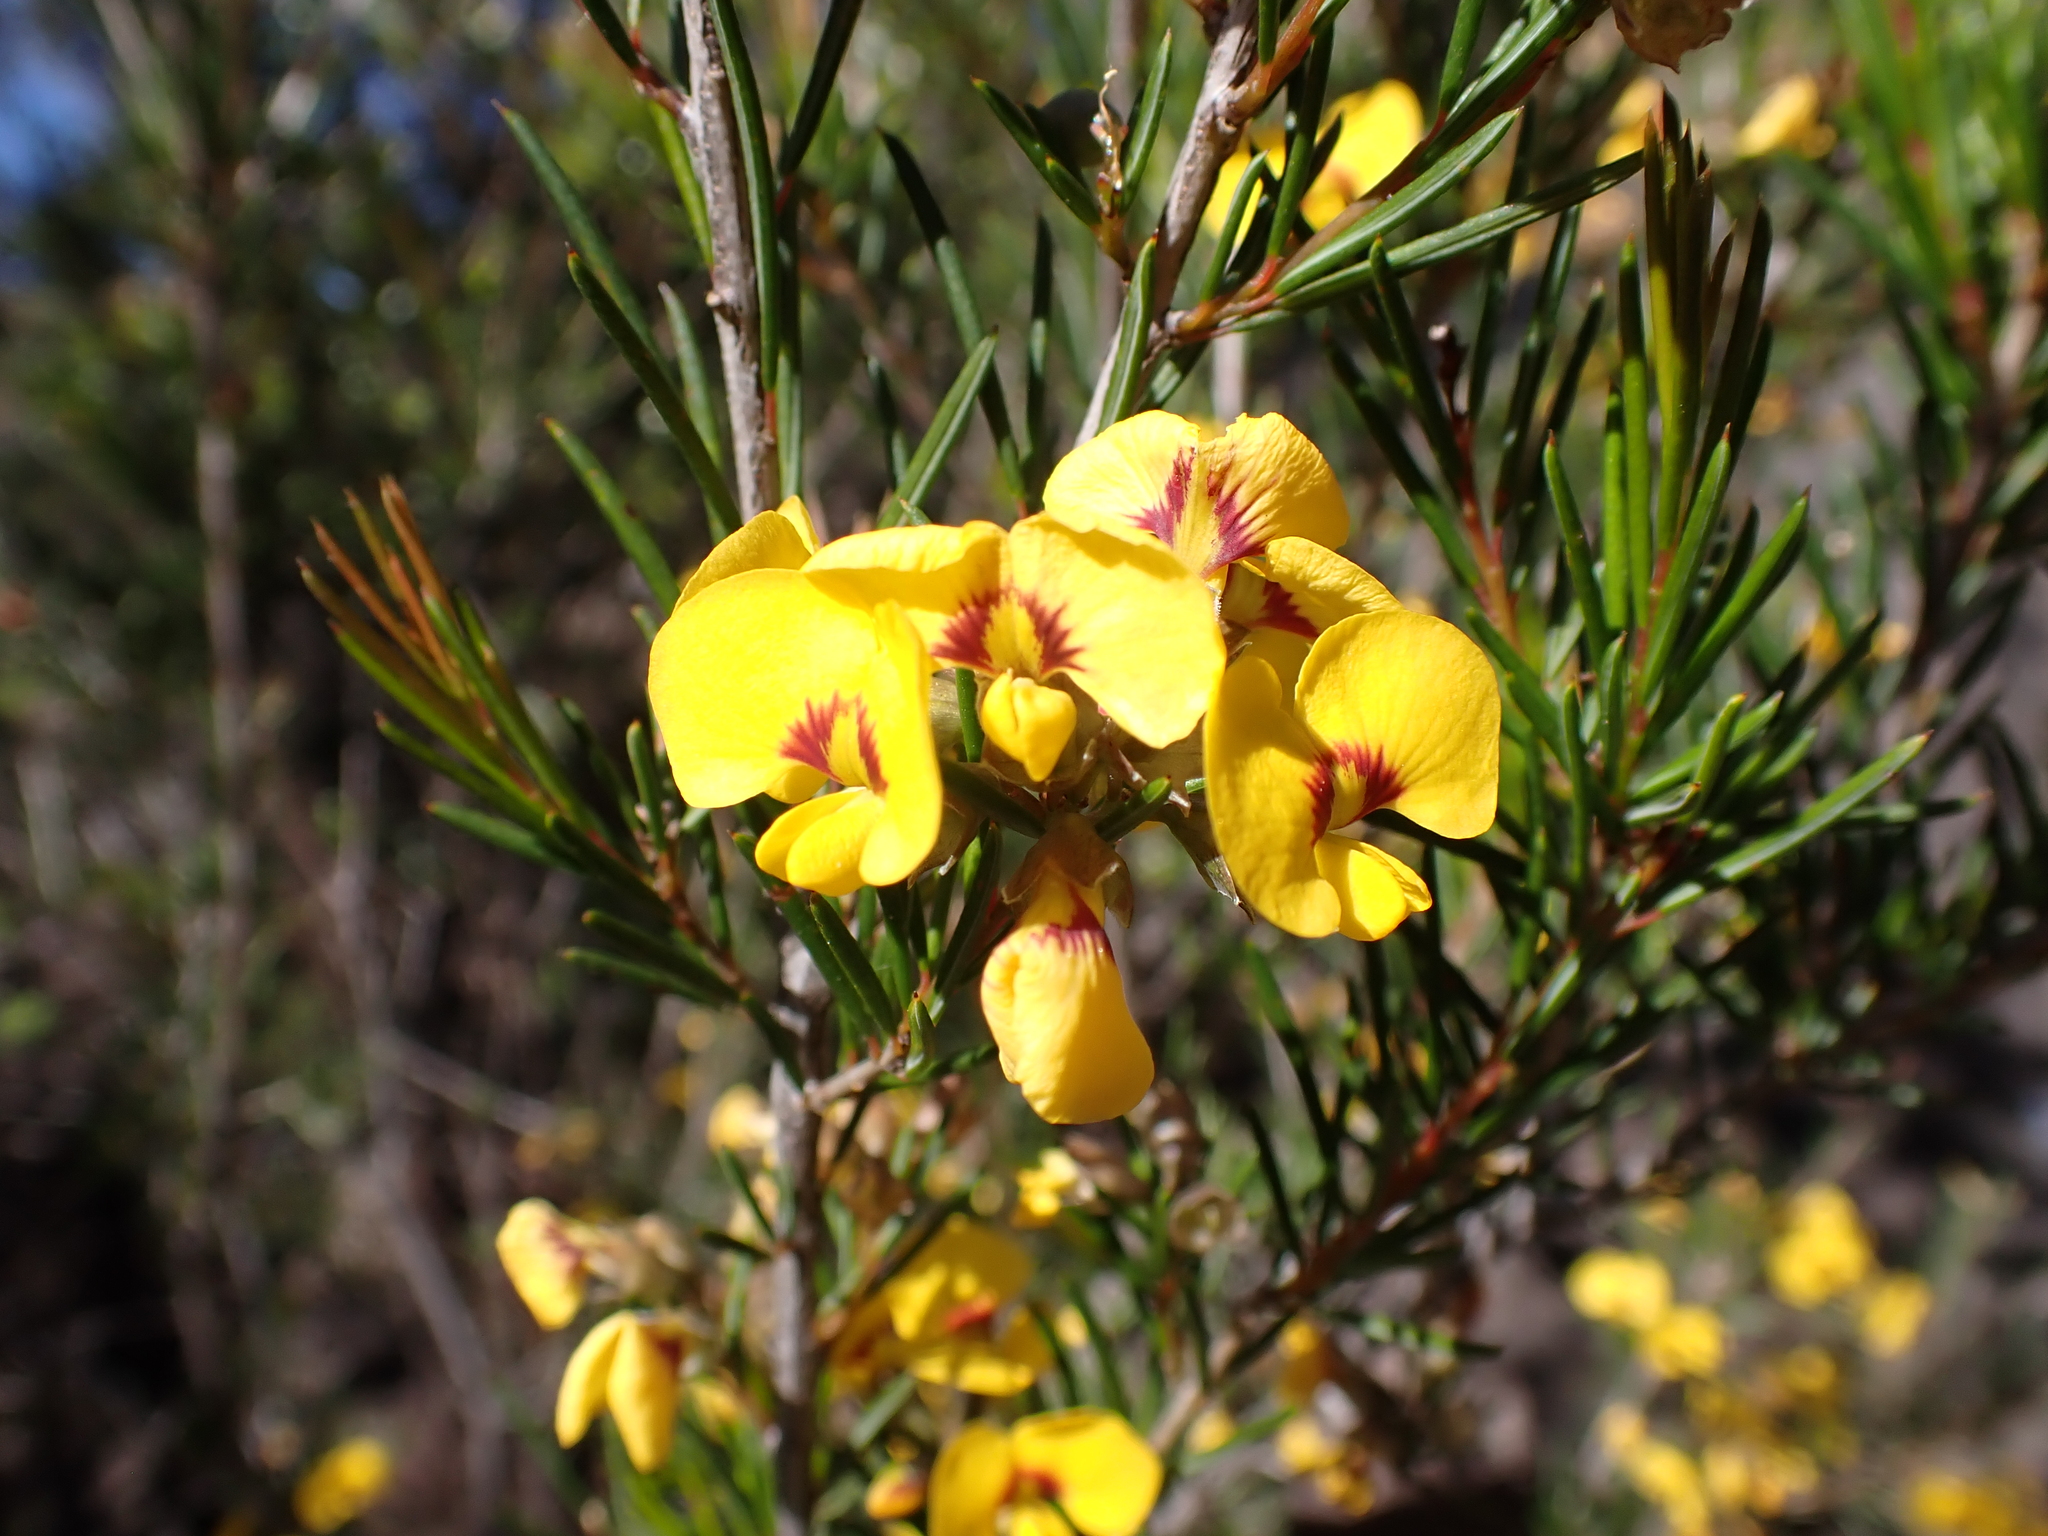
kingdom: Plantae
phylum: Tracheophyta
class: Magnoliopsida
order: Fabales
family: Fabaceae
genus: Dillwynia
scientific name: Dillwynia oreodoxa
